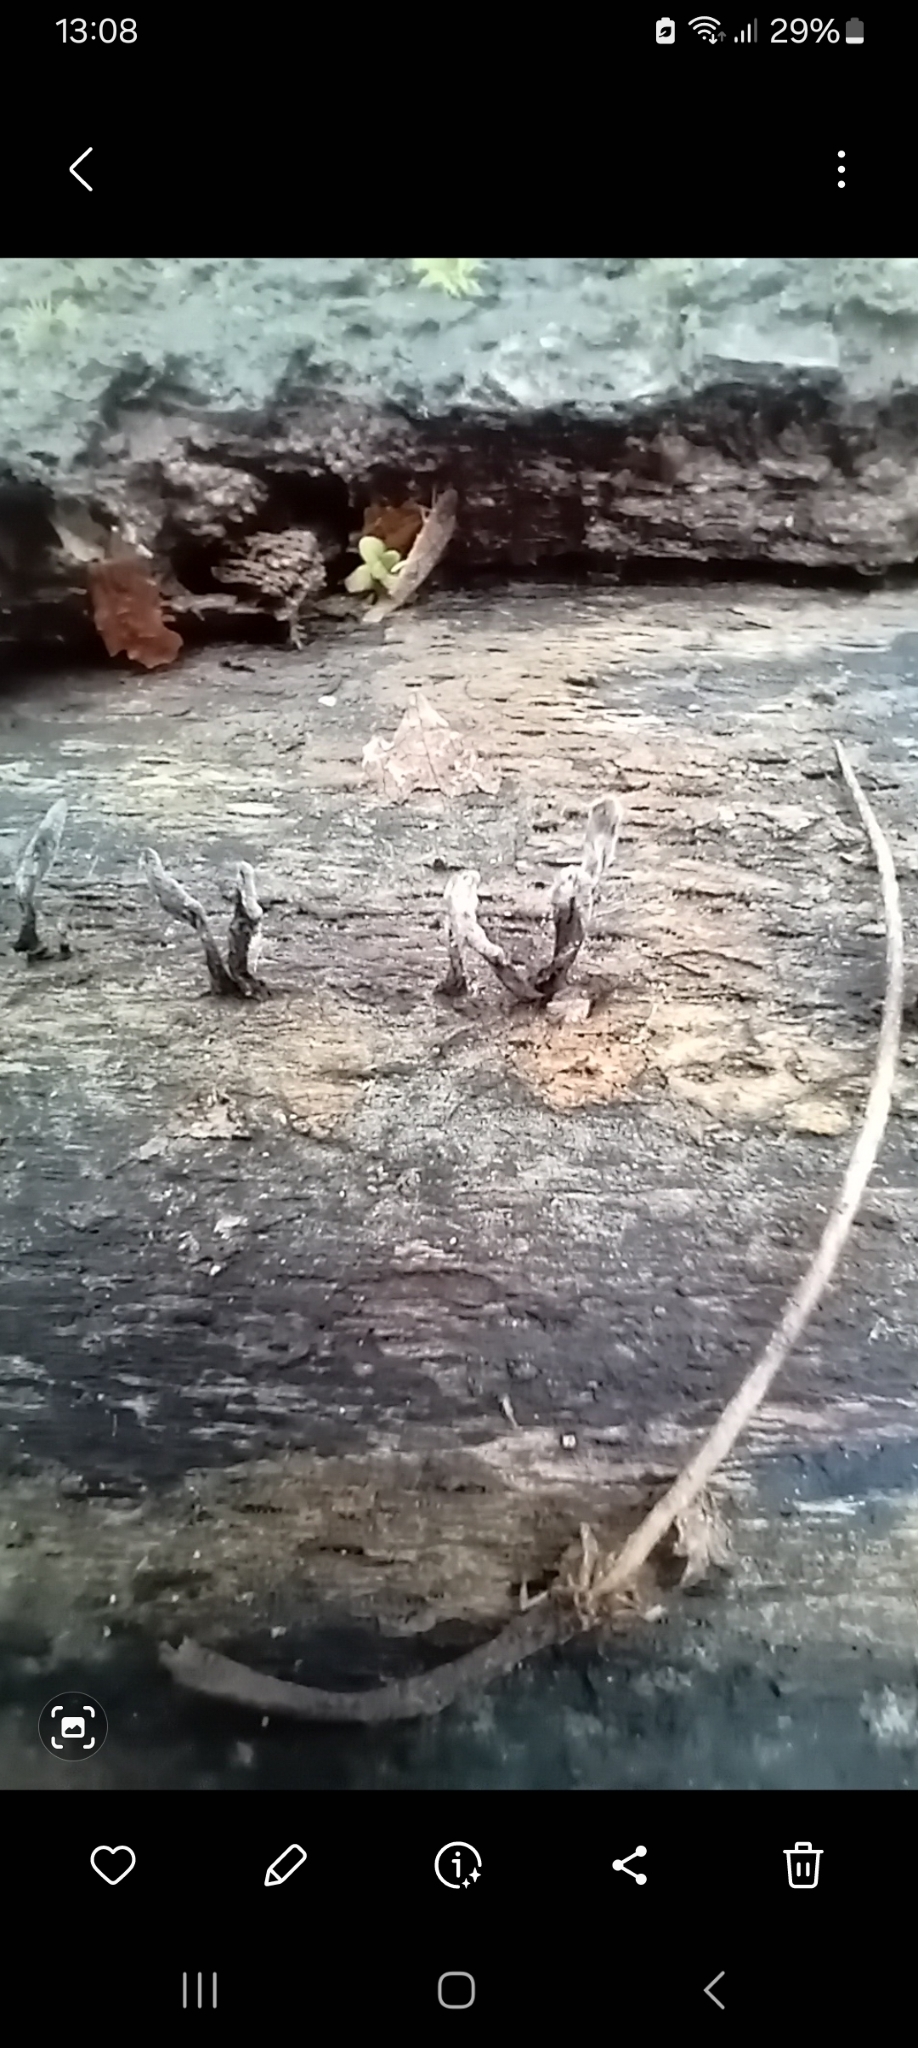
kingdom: Fungi
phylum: Ascomycota
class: Sordariomycetes
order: Xylariales
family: Xylariaceae
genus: Xylaria
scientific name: Xylaria hypoxylon
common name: Candle-snuff fungus
